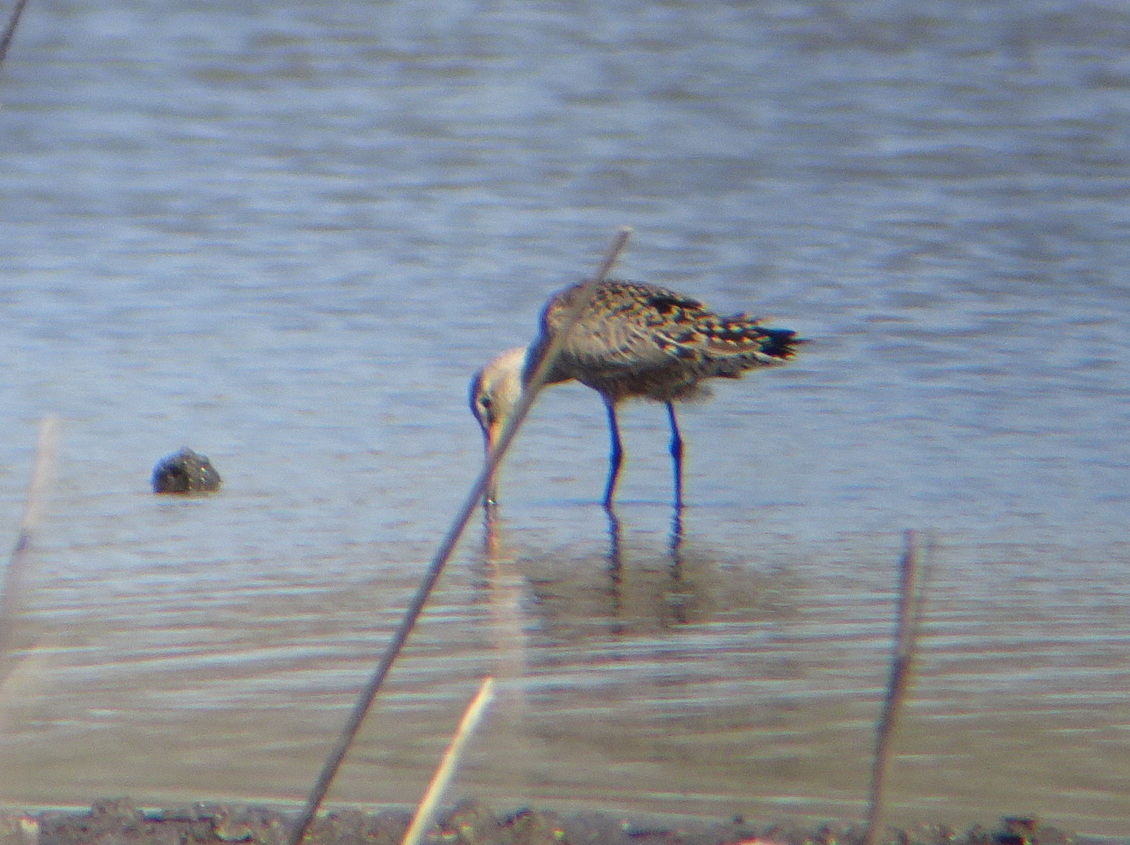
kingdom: Animalia
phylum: Chordata
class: Aves
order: Charadriiformes
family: Scolopacidae
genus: Limosa
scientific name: Limosa haemastica
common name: Hudsonian godwit
